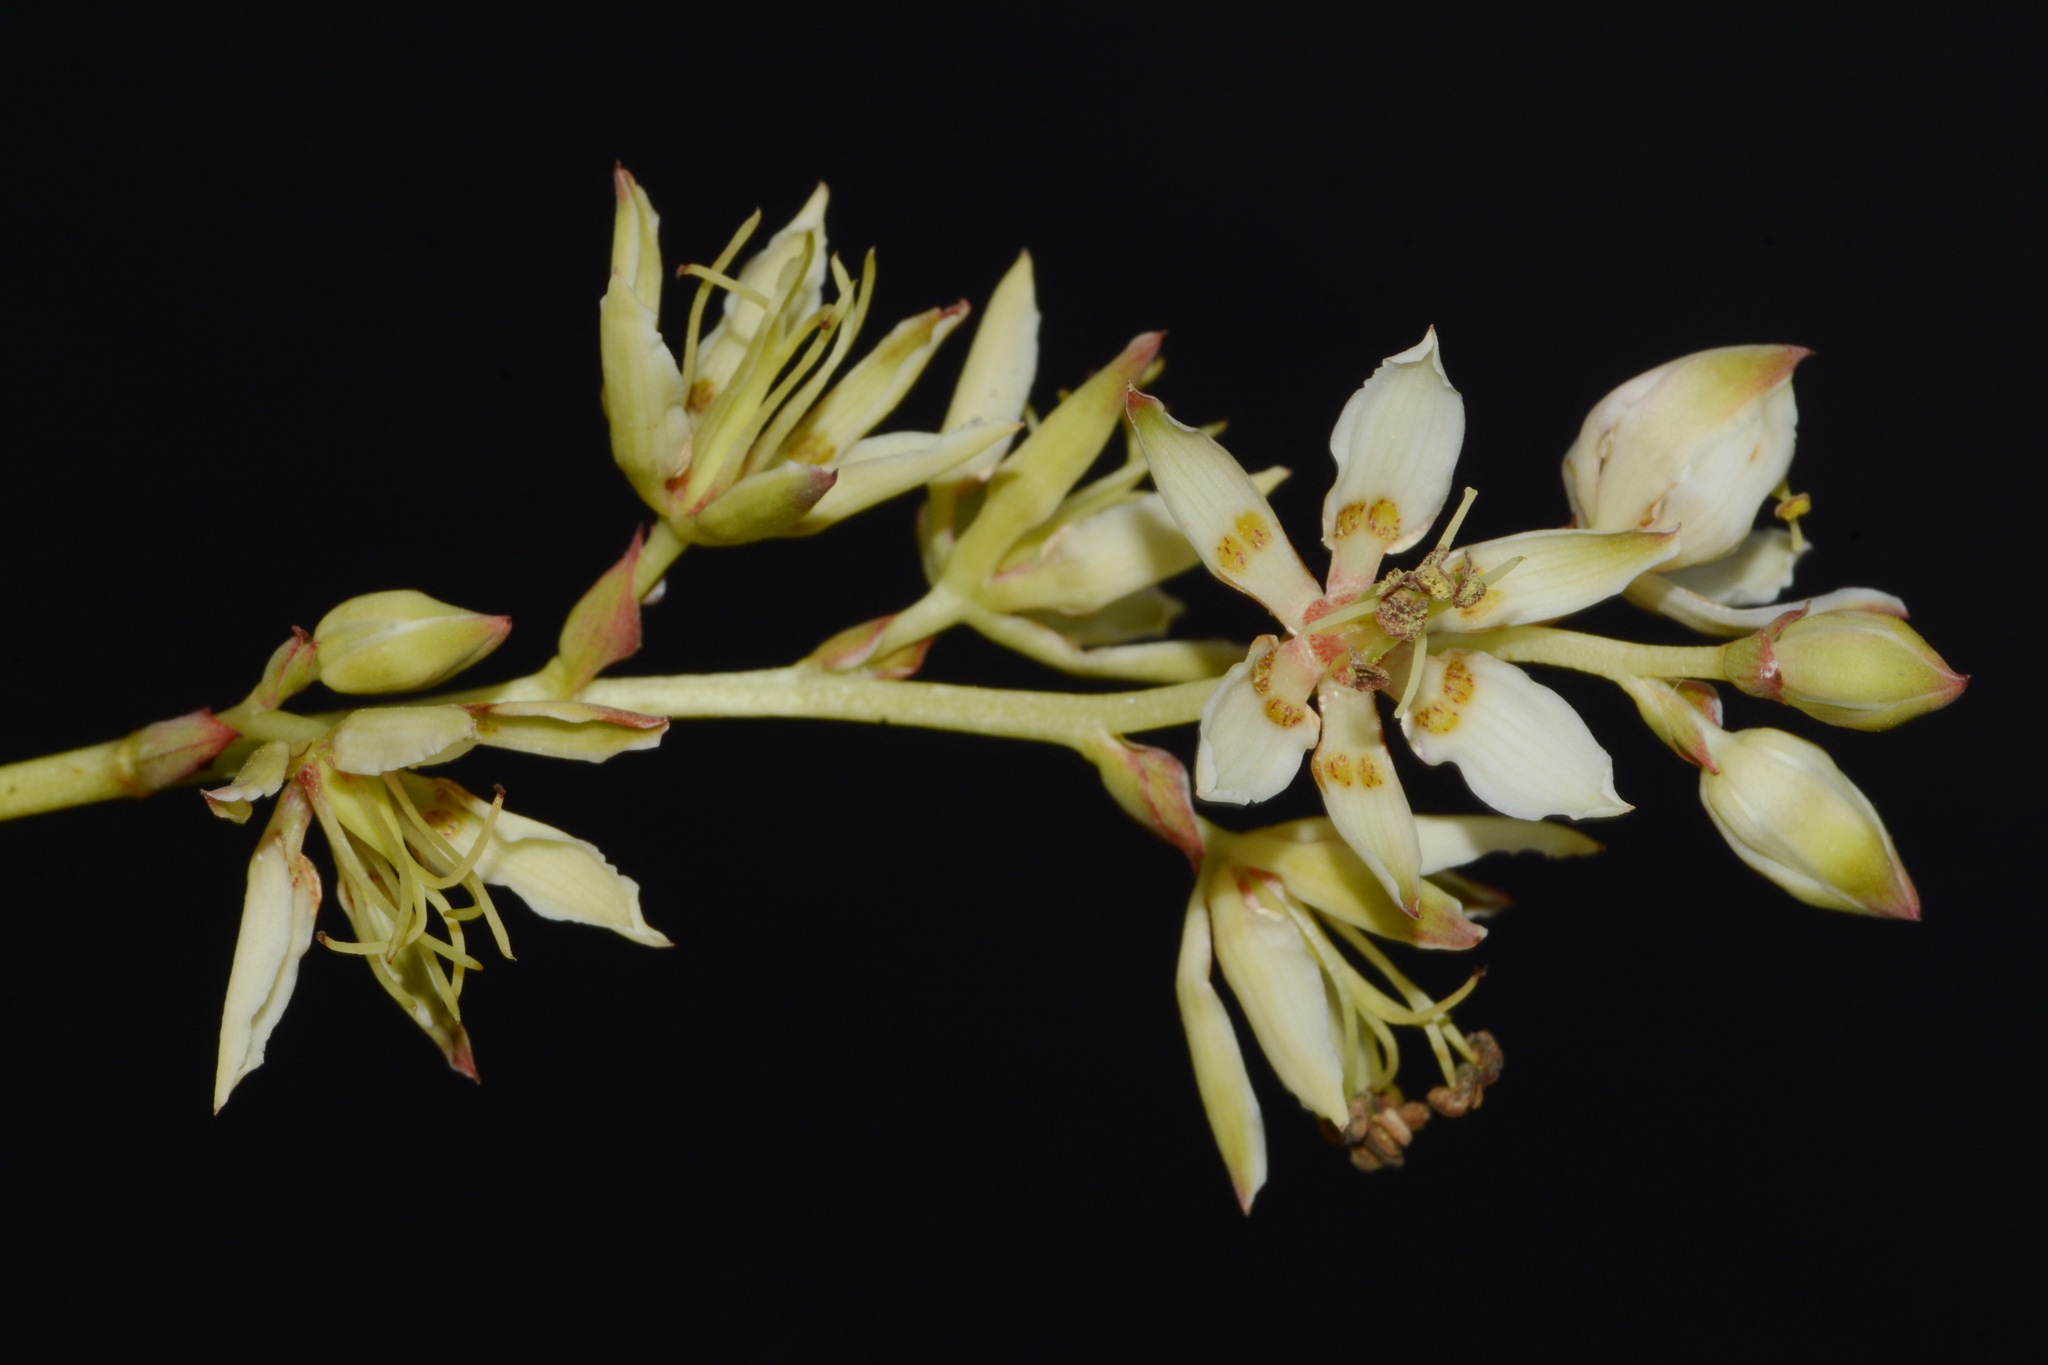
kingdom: Plantae
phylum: Tracheophyta
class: Liliopsida
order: Liliales
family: Melanthiaceae
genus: Zigadenus
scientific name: Zigadenus glaberrimus
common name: Sandbog death camas
